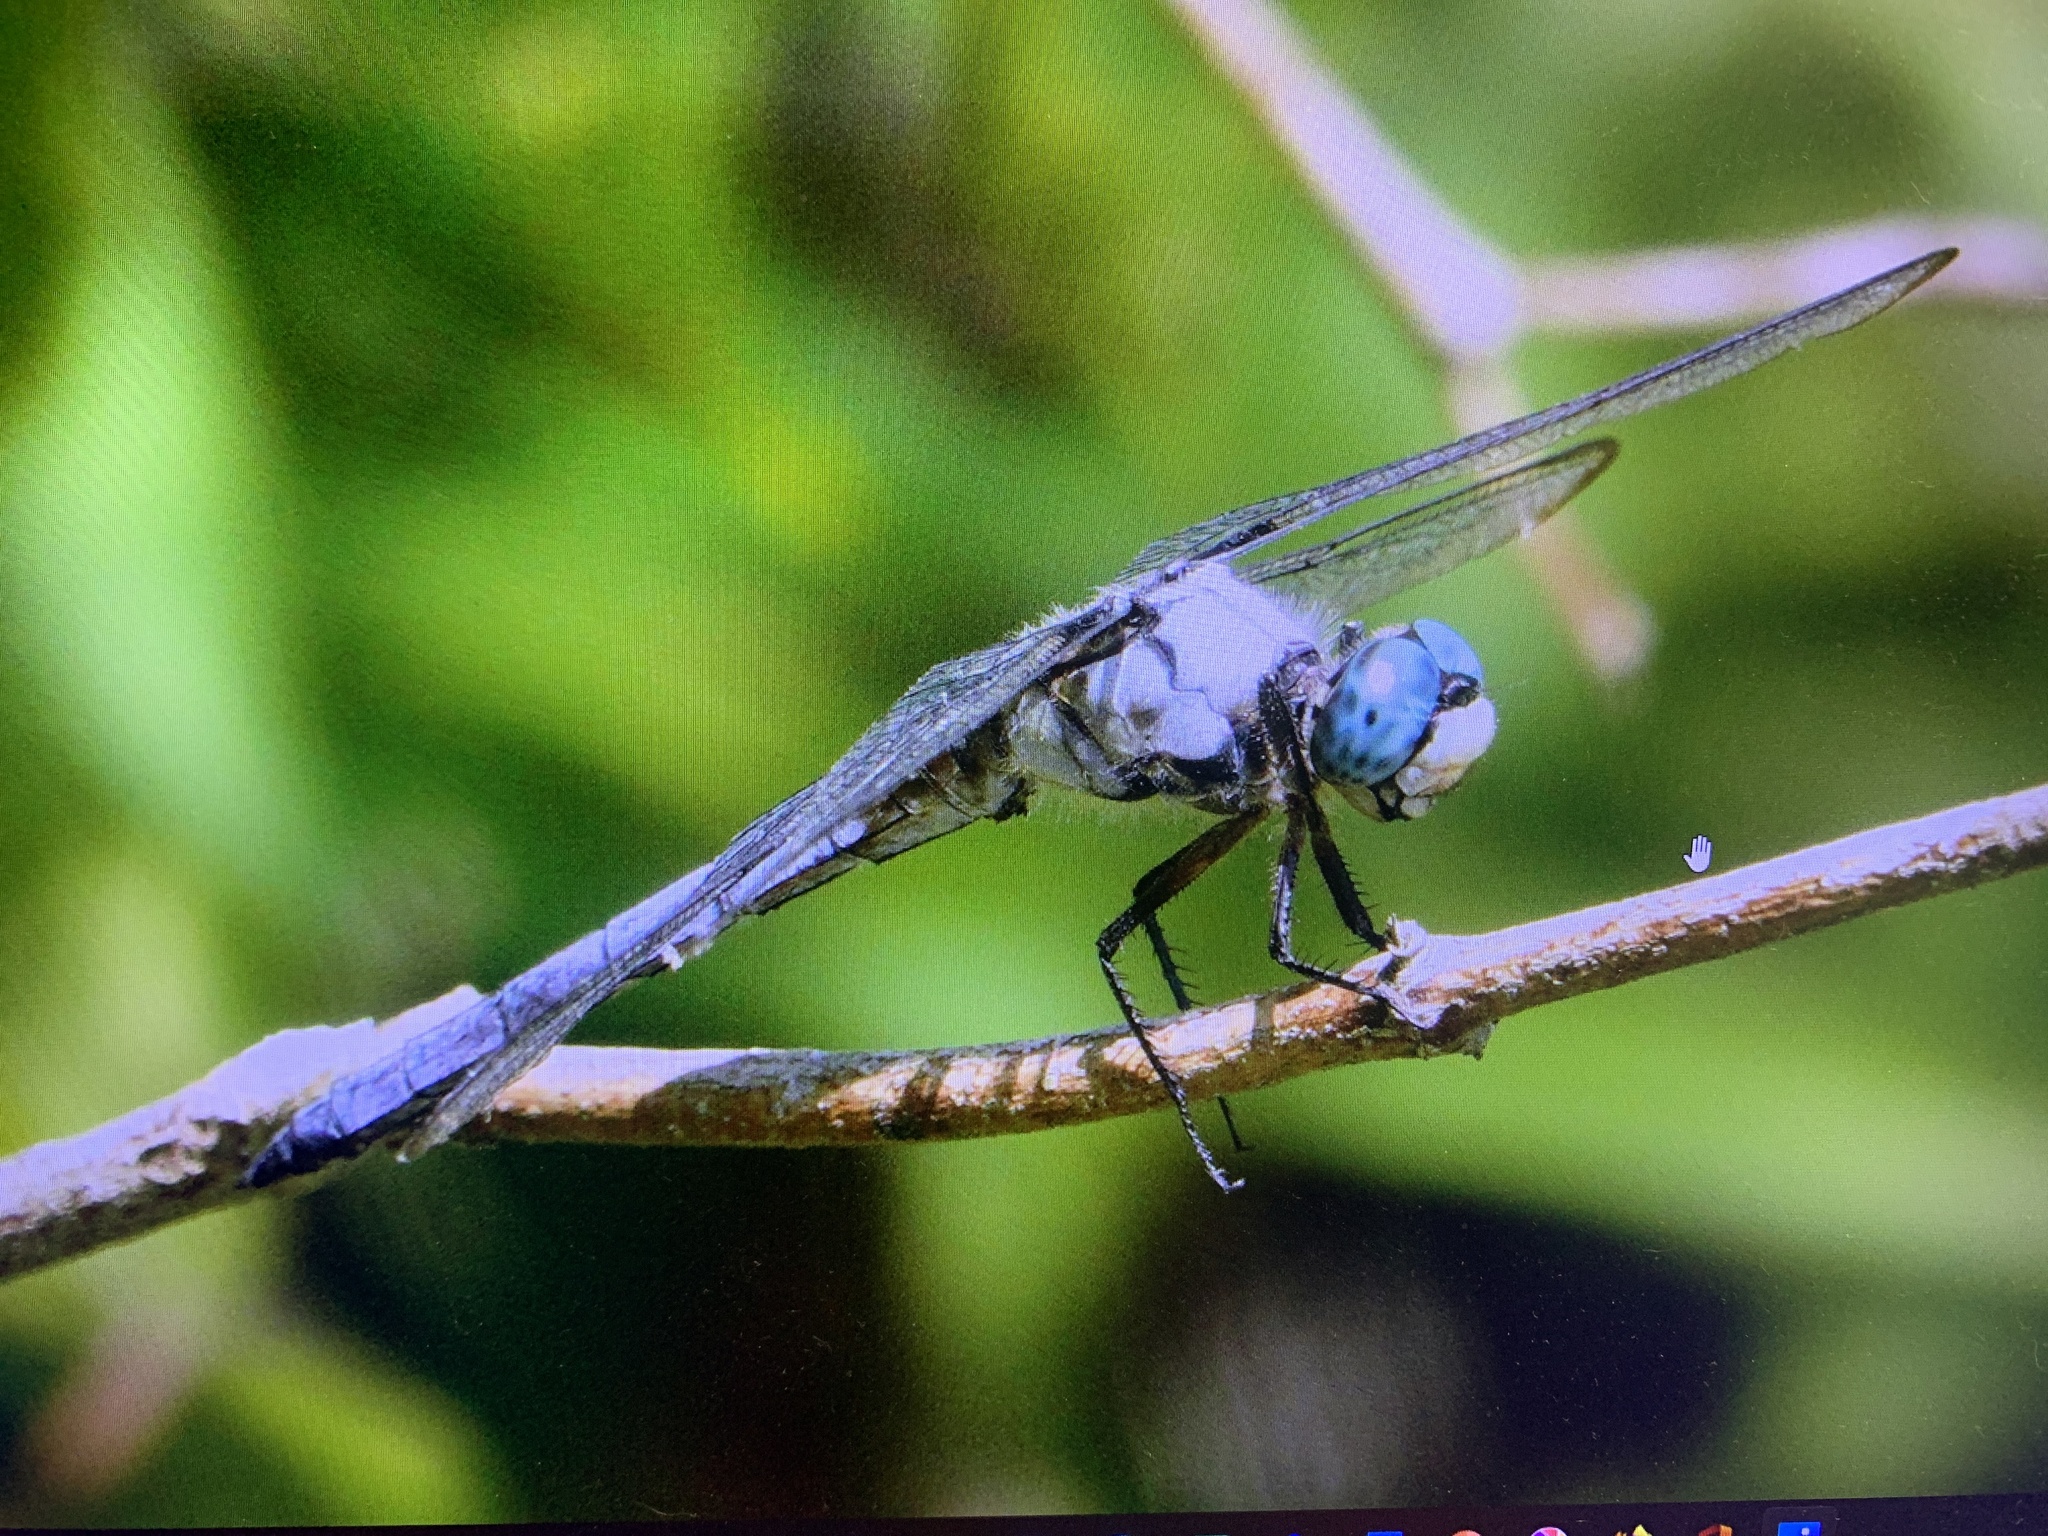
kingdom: Animalia
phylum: Arthropoda
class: Insecta
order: Odonata
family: Libellulidae
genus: Libellula
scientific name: Libellula vibrans
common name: Great blue skimmer
